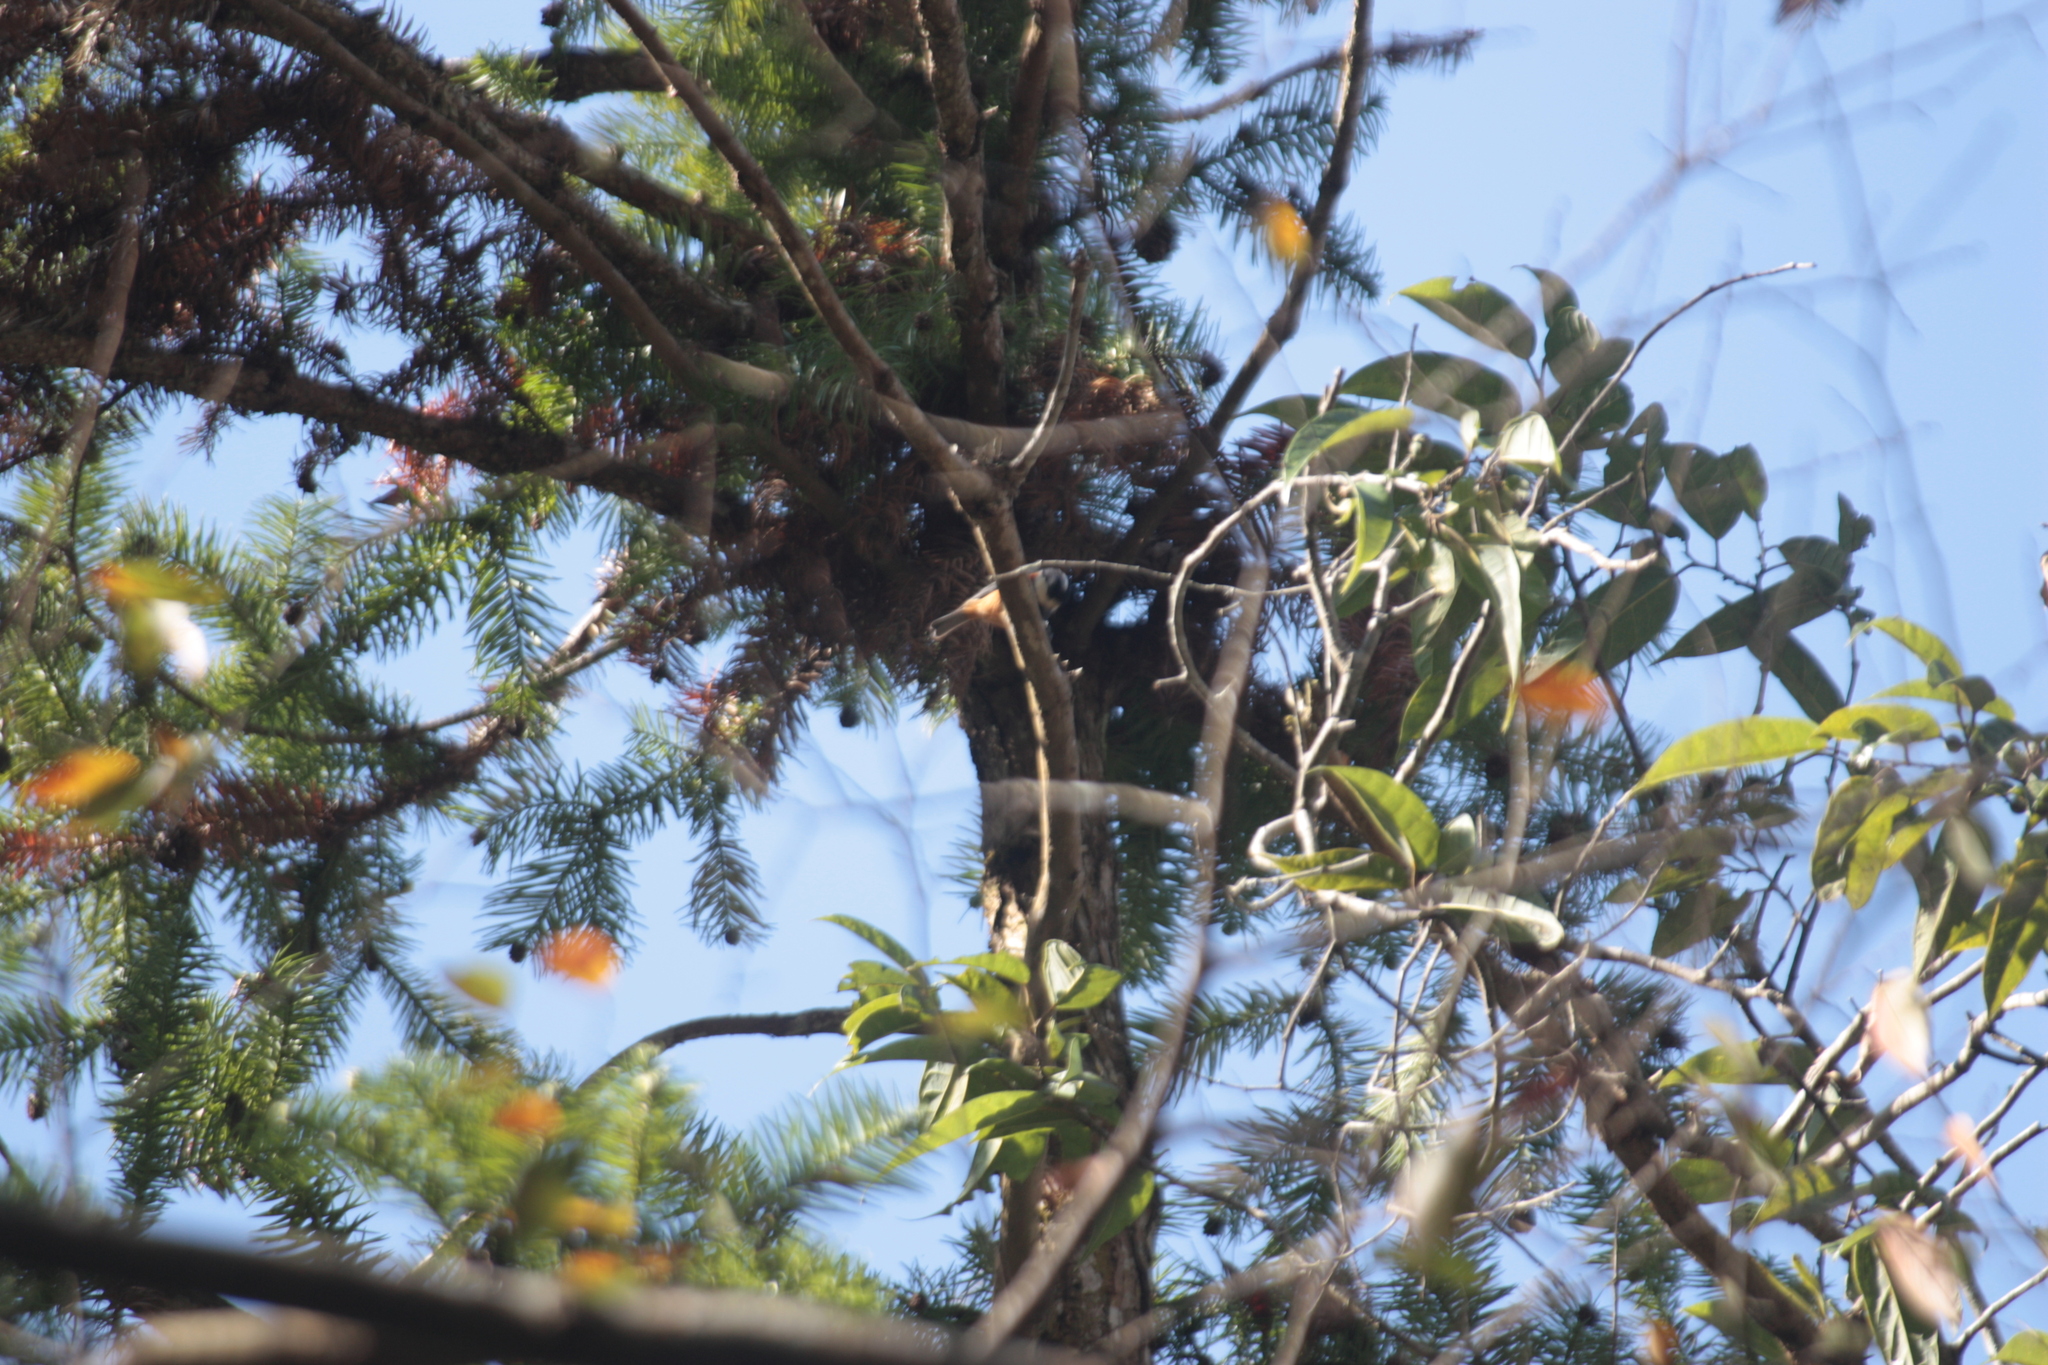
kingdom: Animalia
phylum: Chordata
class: Aves
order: Passeriformes
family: Paridae
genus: Poecile
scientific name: Poecile varius
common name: Varied tit
